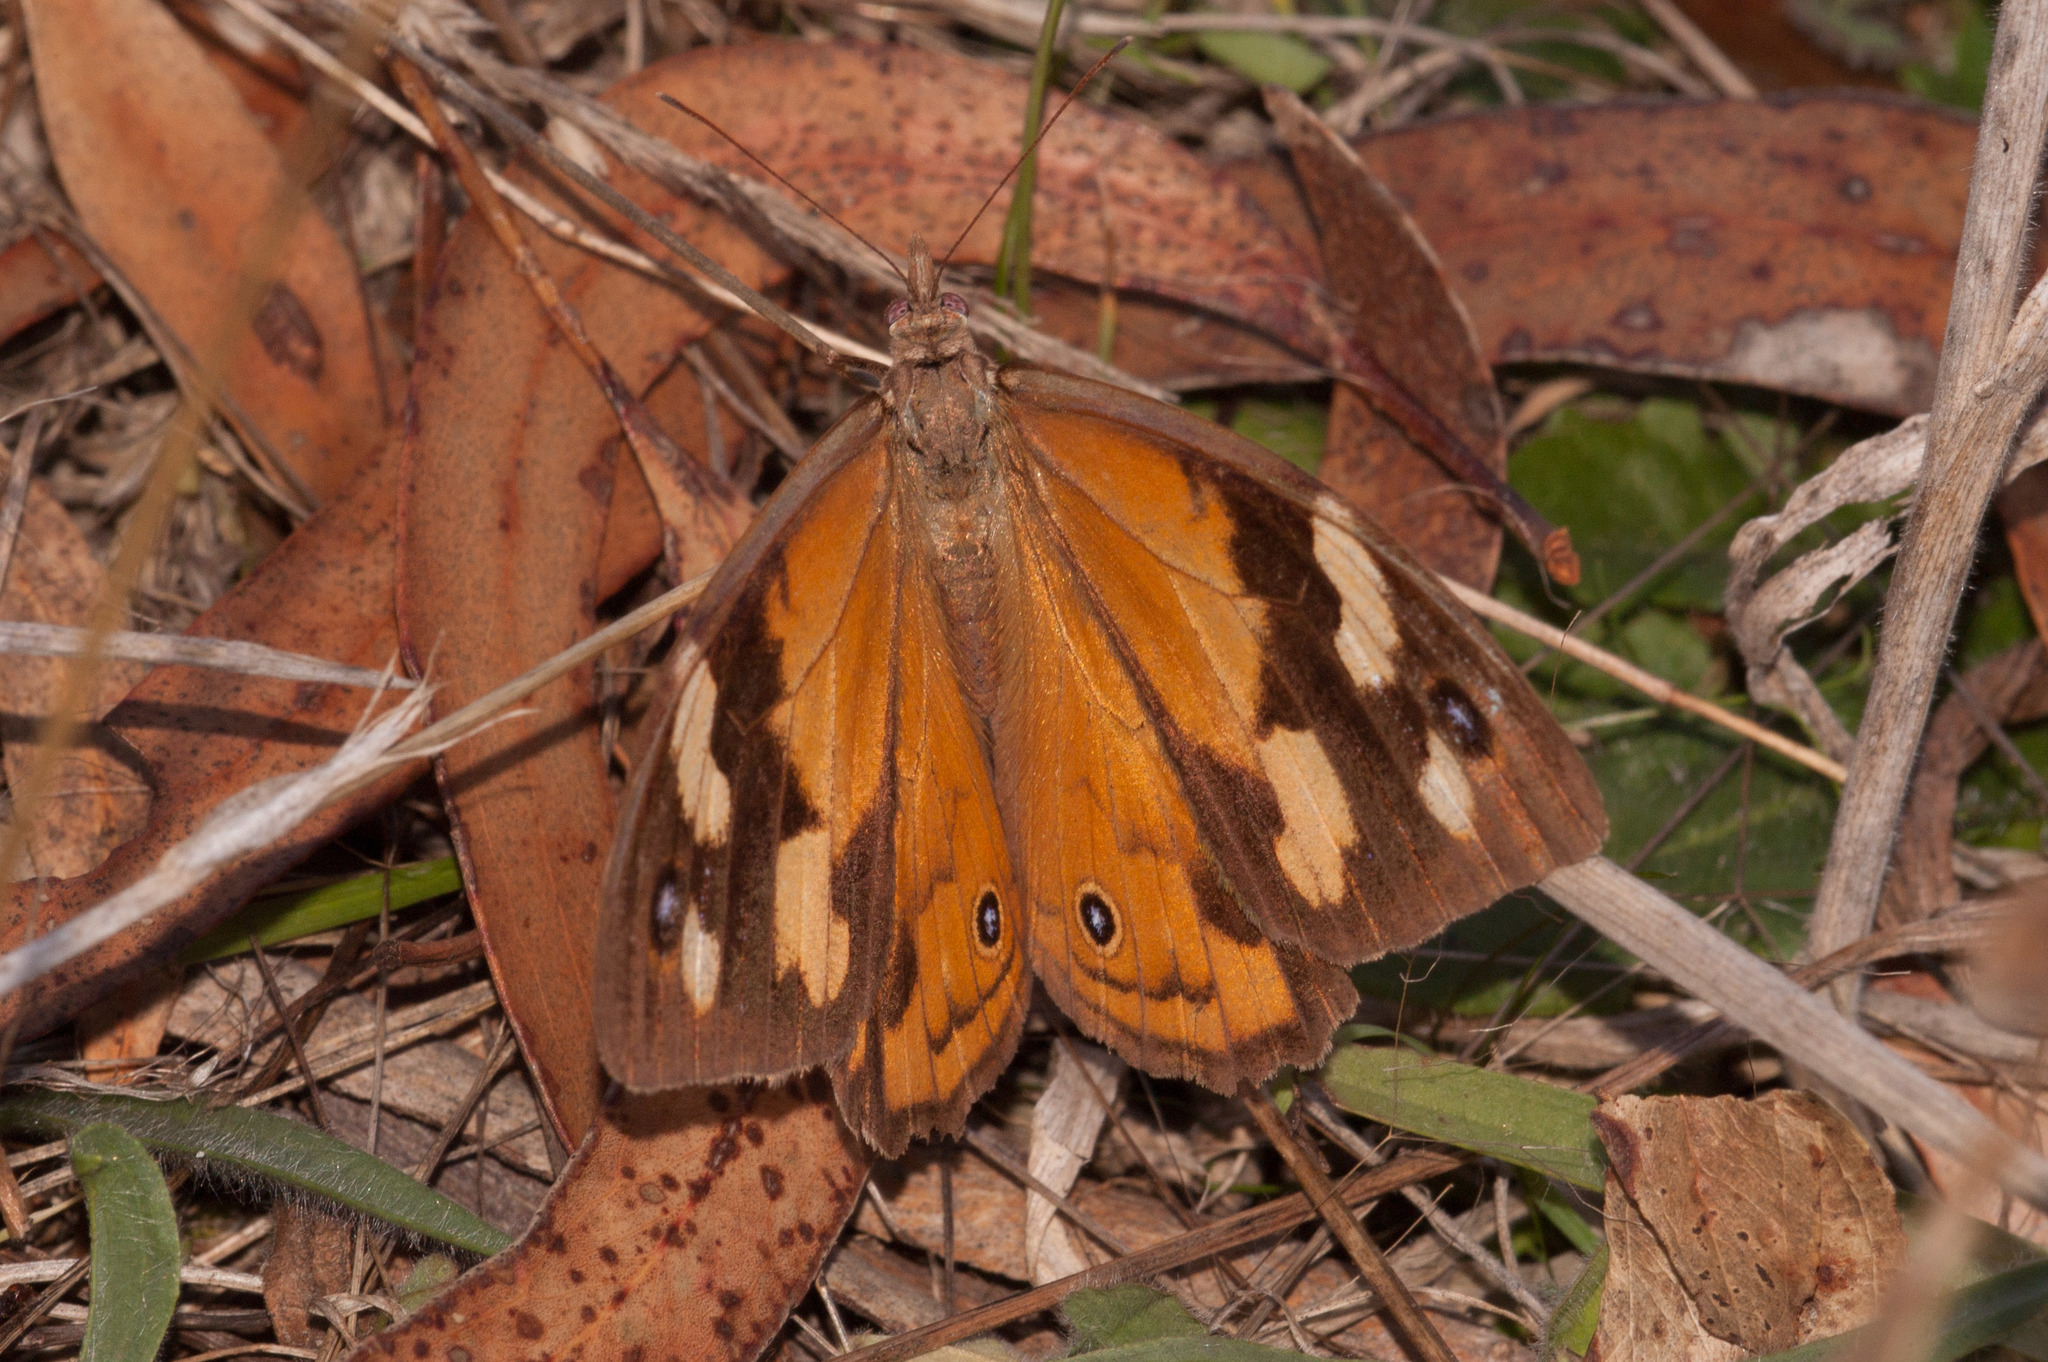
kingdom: Animalia
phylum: Arthropoda
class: Insecta
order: Lepidoptera
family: Nymphalidae
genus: Heteronympha
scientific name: Heteronympha merope
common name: Common brown
